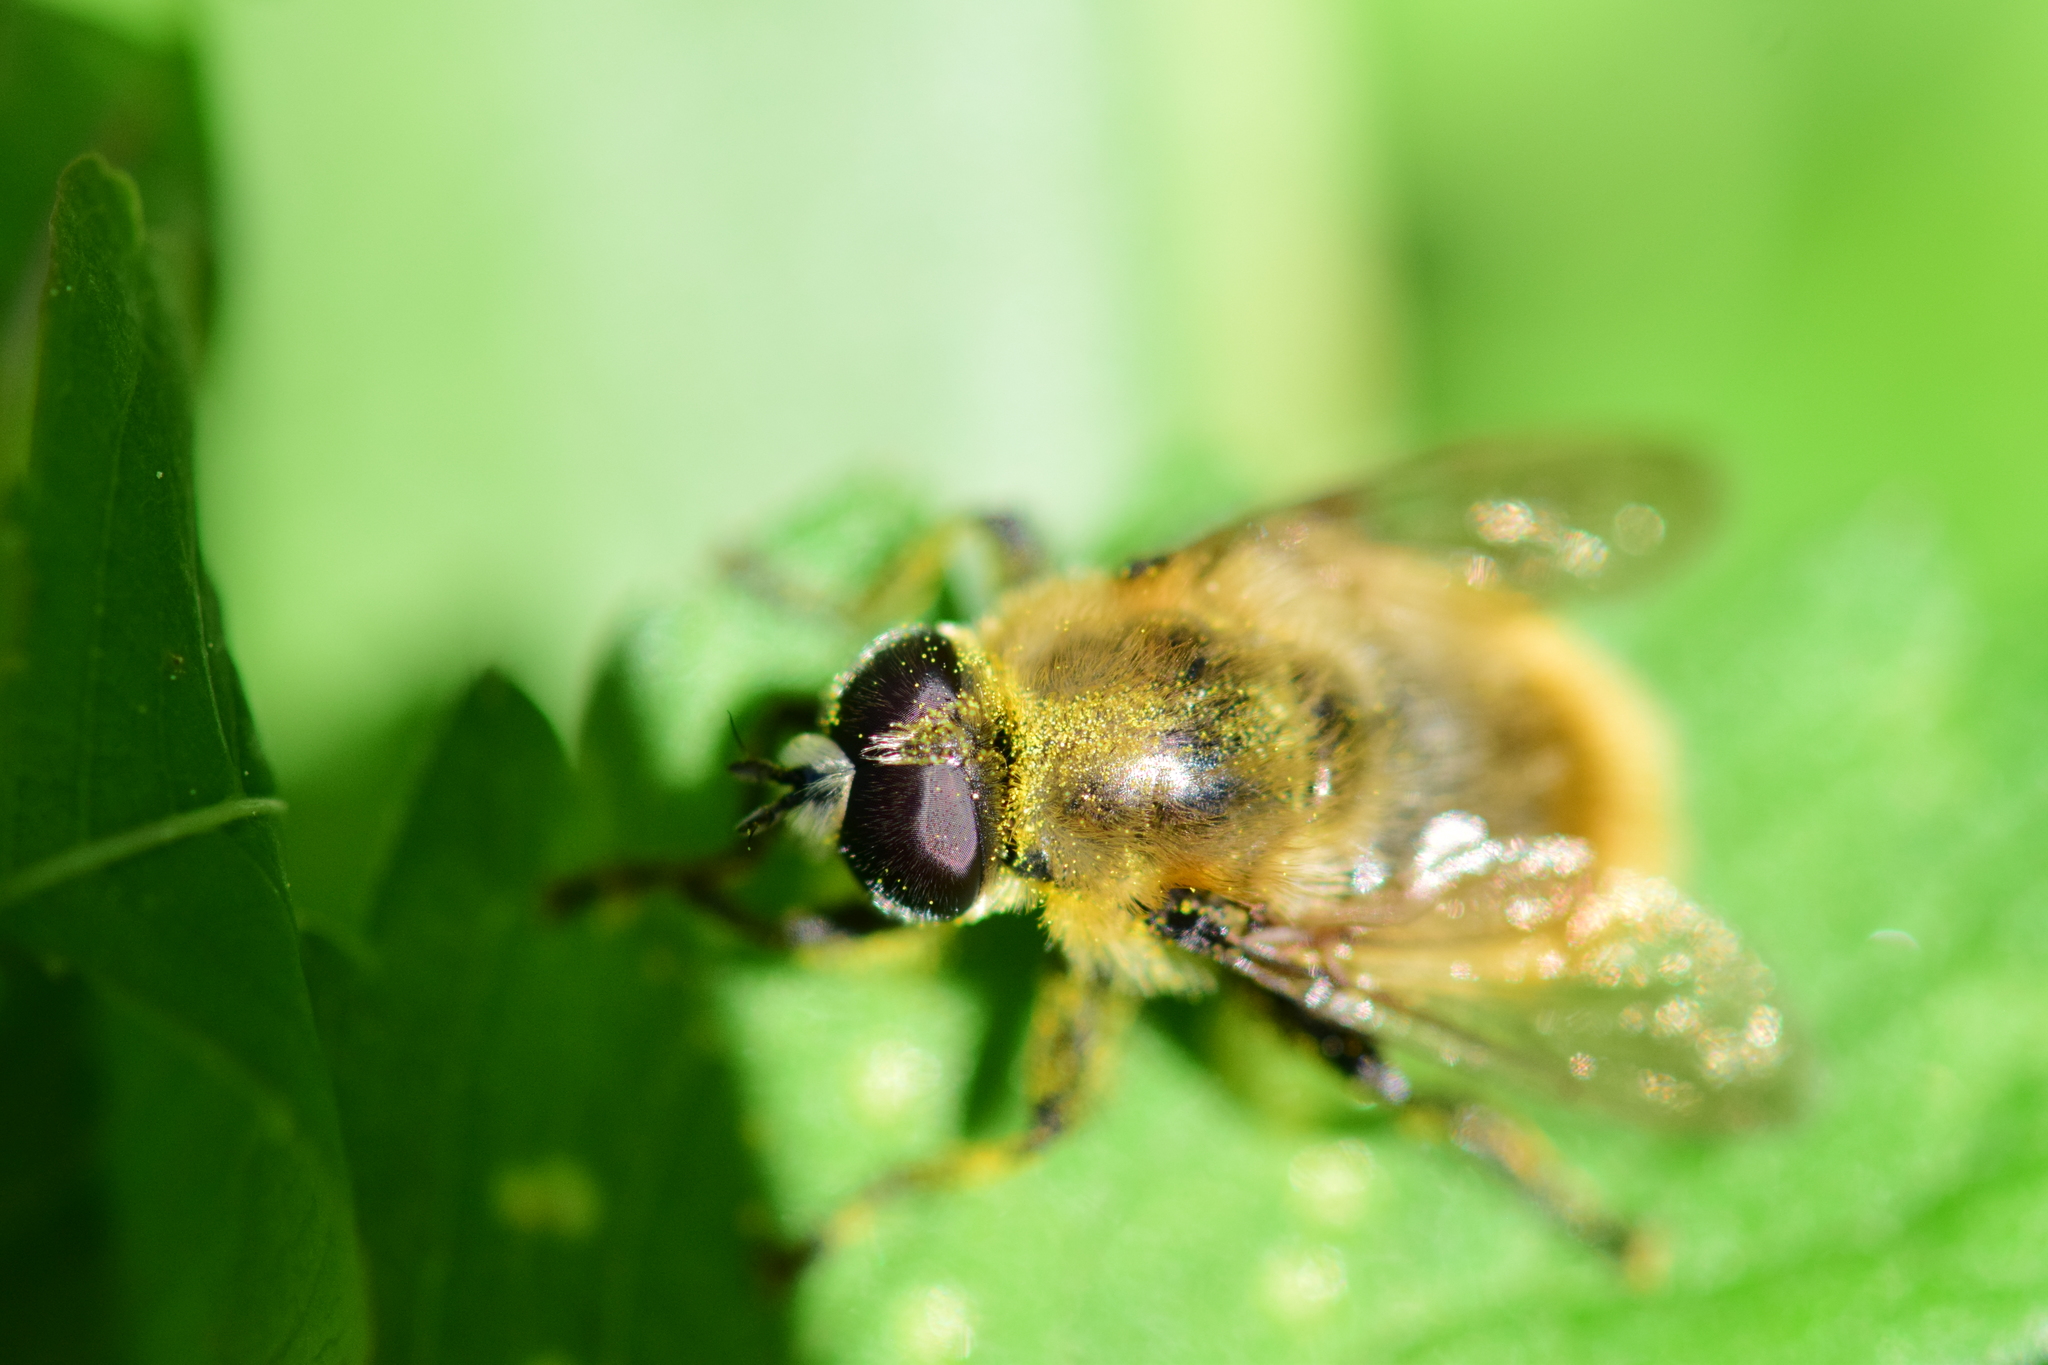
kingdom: Animalia
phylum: Arthropoda
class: Insecta
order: Diptera
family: Syrphidae
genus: Merodon
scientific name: Merodon equestris
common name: Greater bulb-fly
